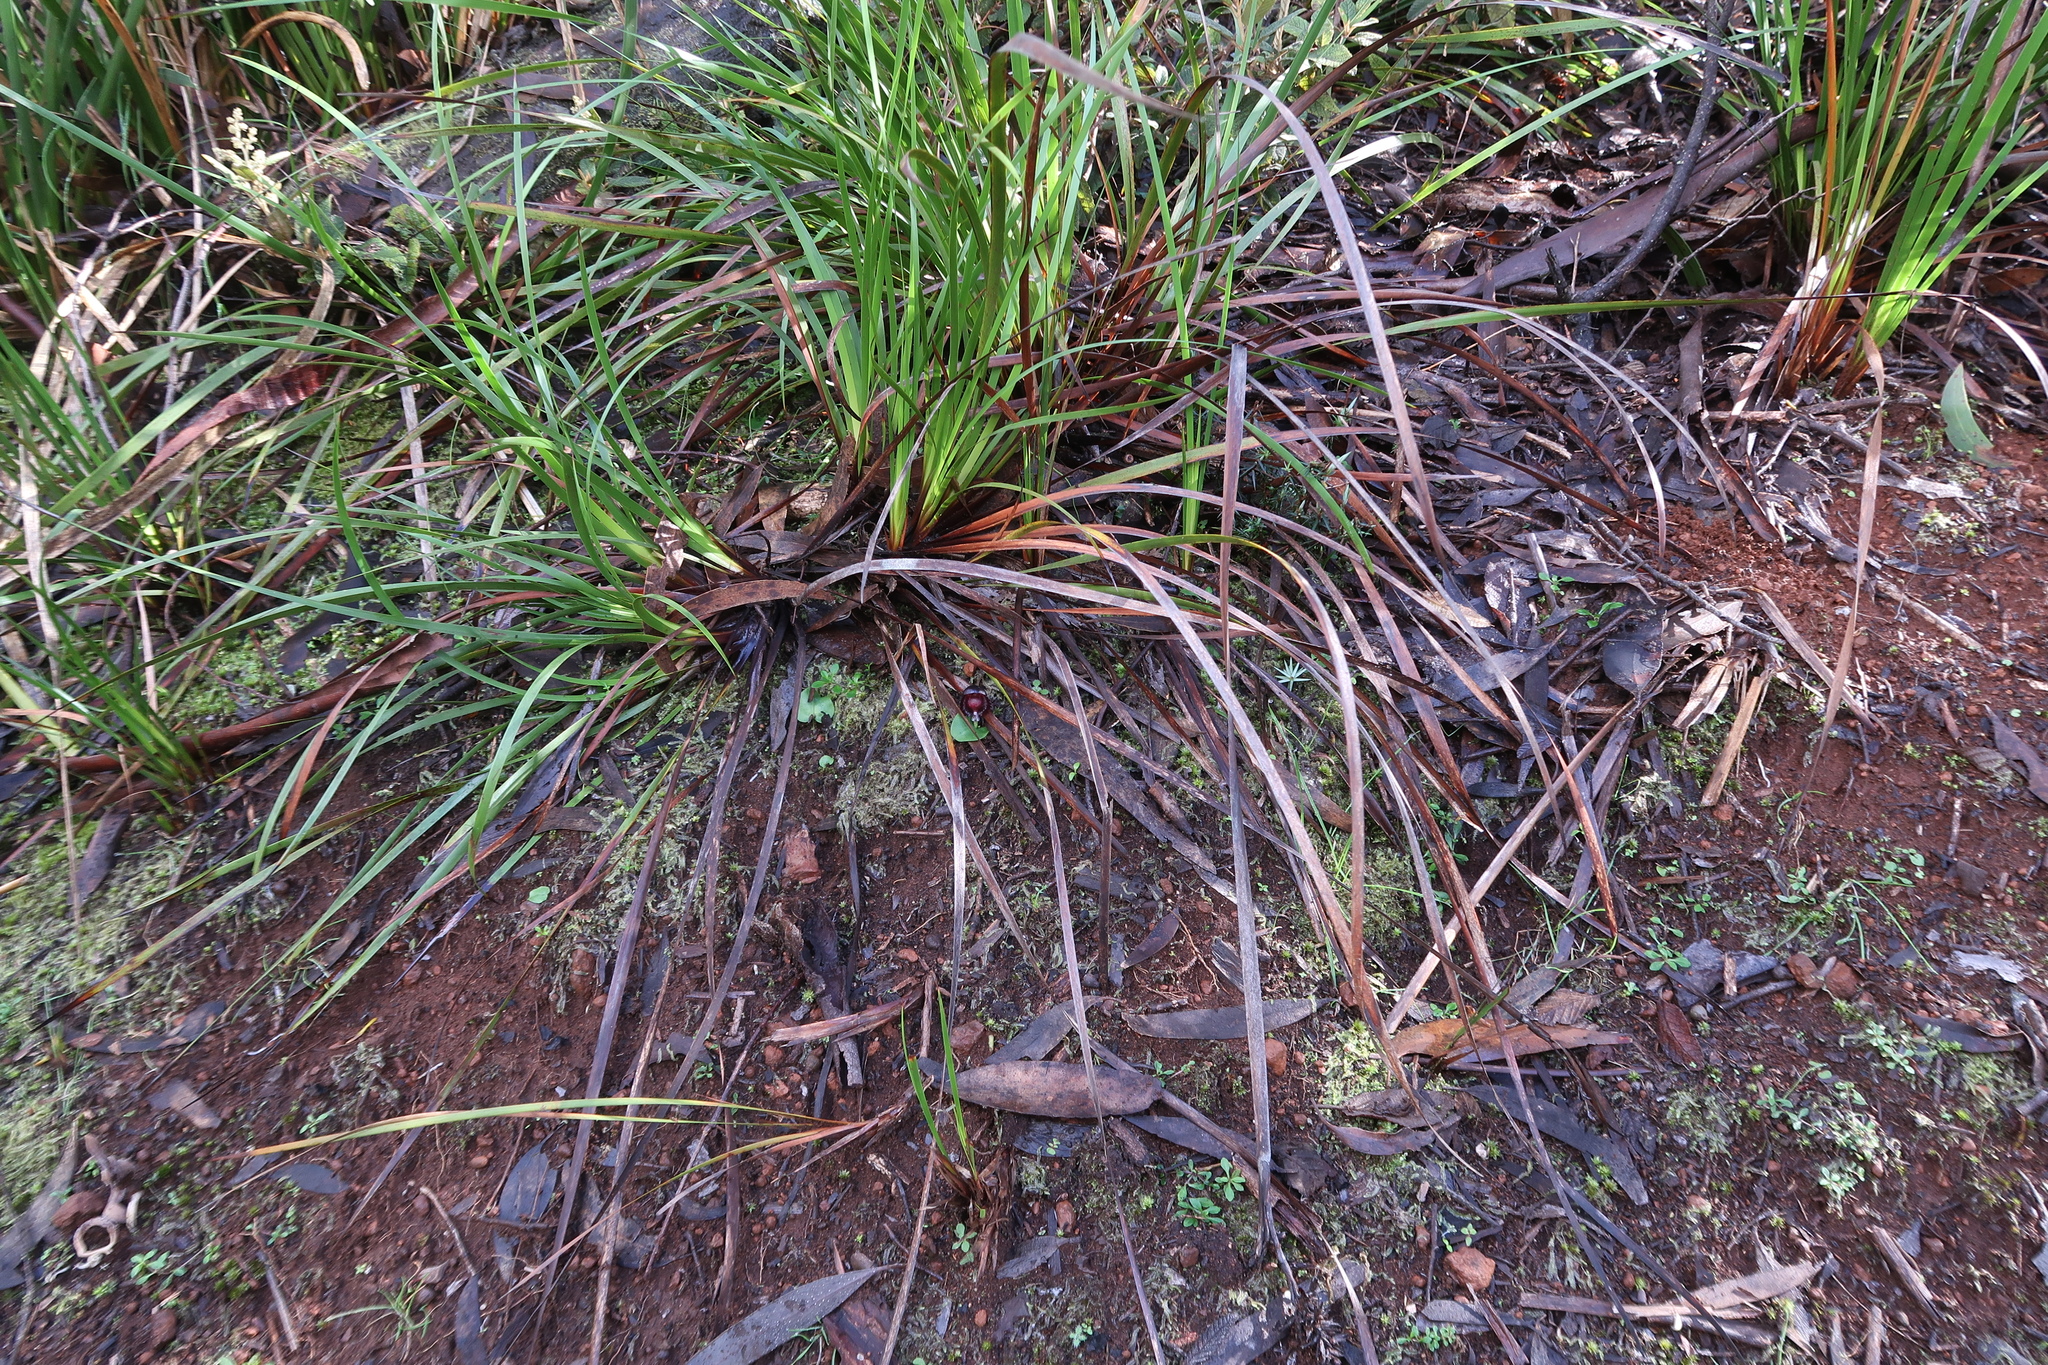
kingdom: Plantae
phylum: Tracheophyta
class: Liliopsida
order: Asparagales
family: Orchidaceae
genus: Corybas
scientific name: Corybas diemenicus
